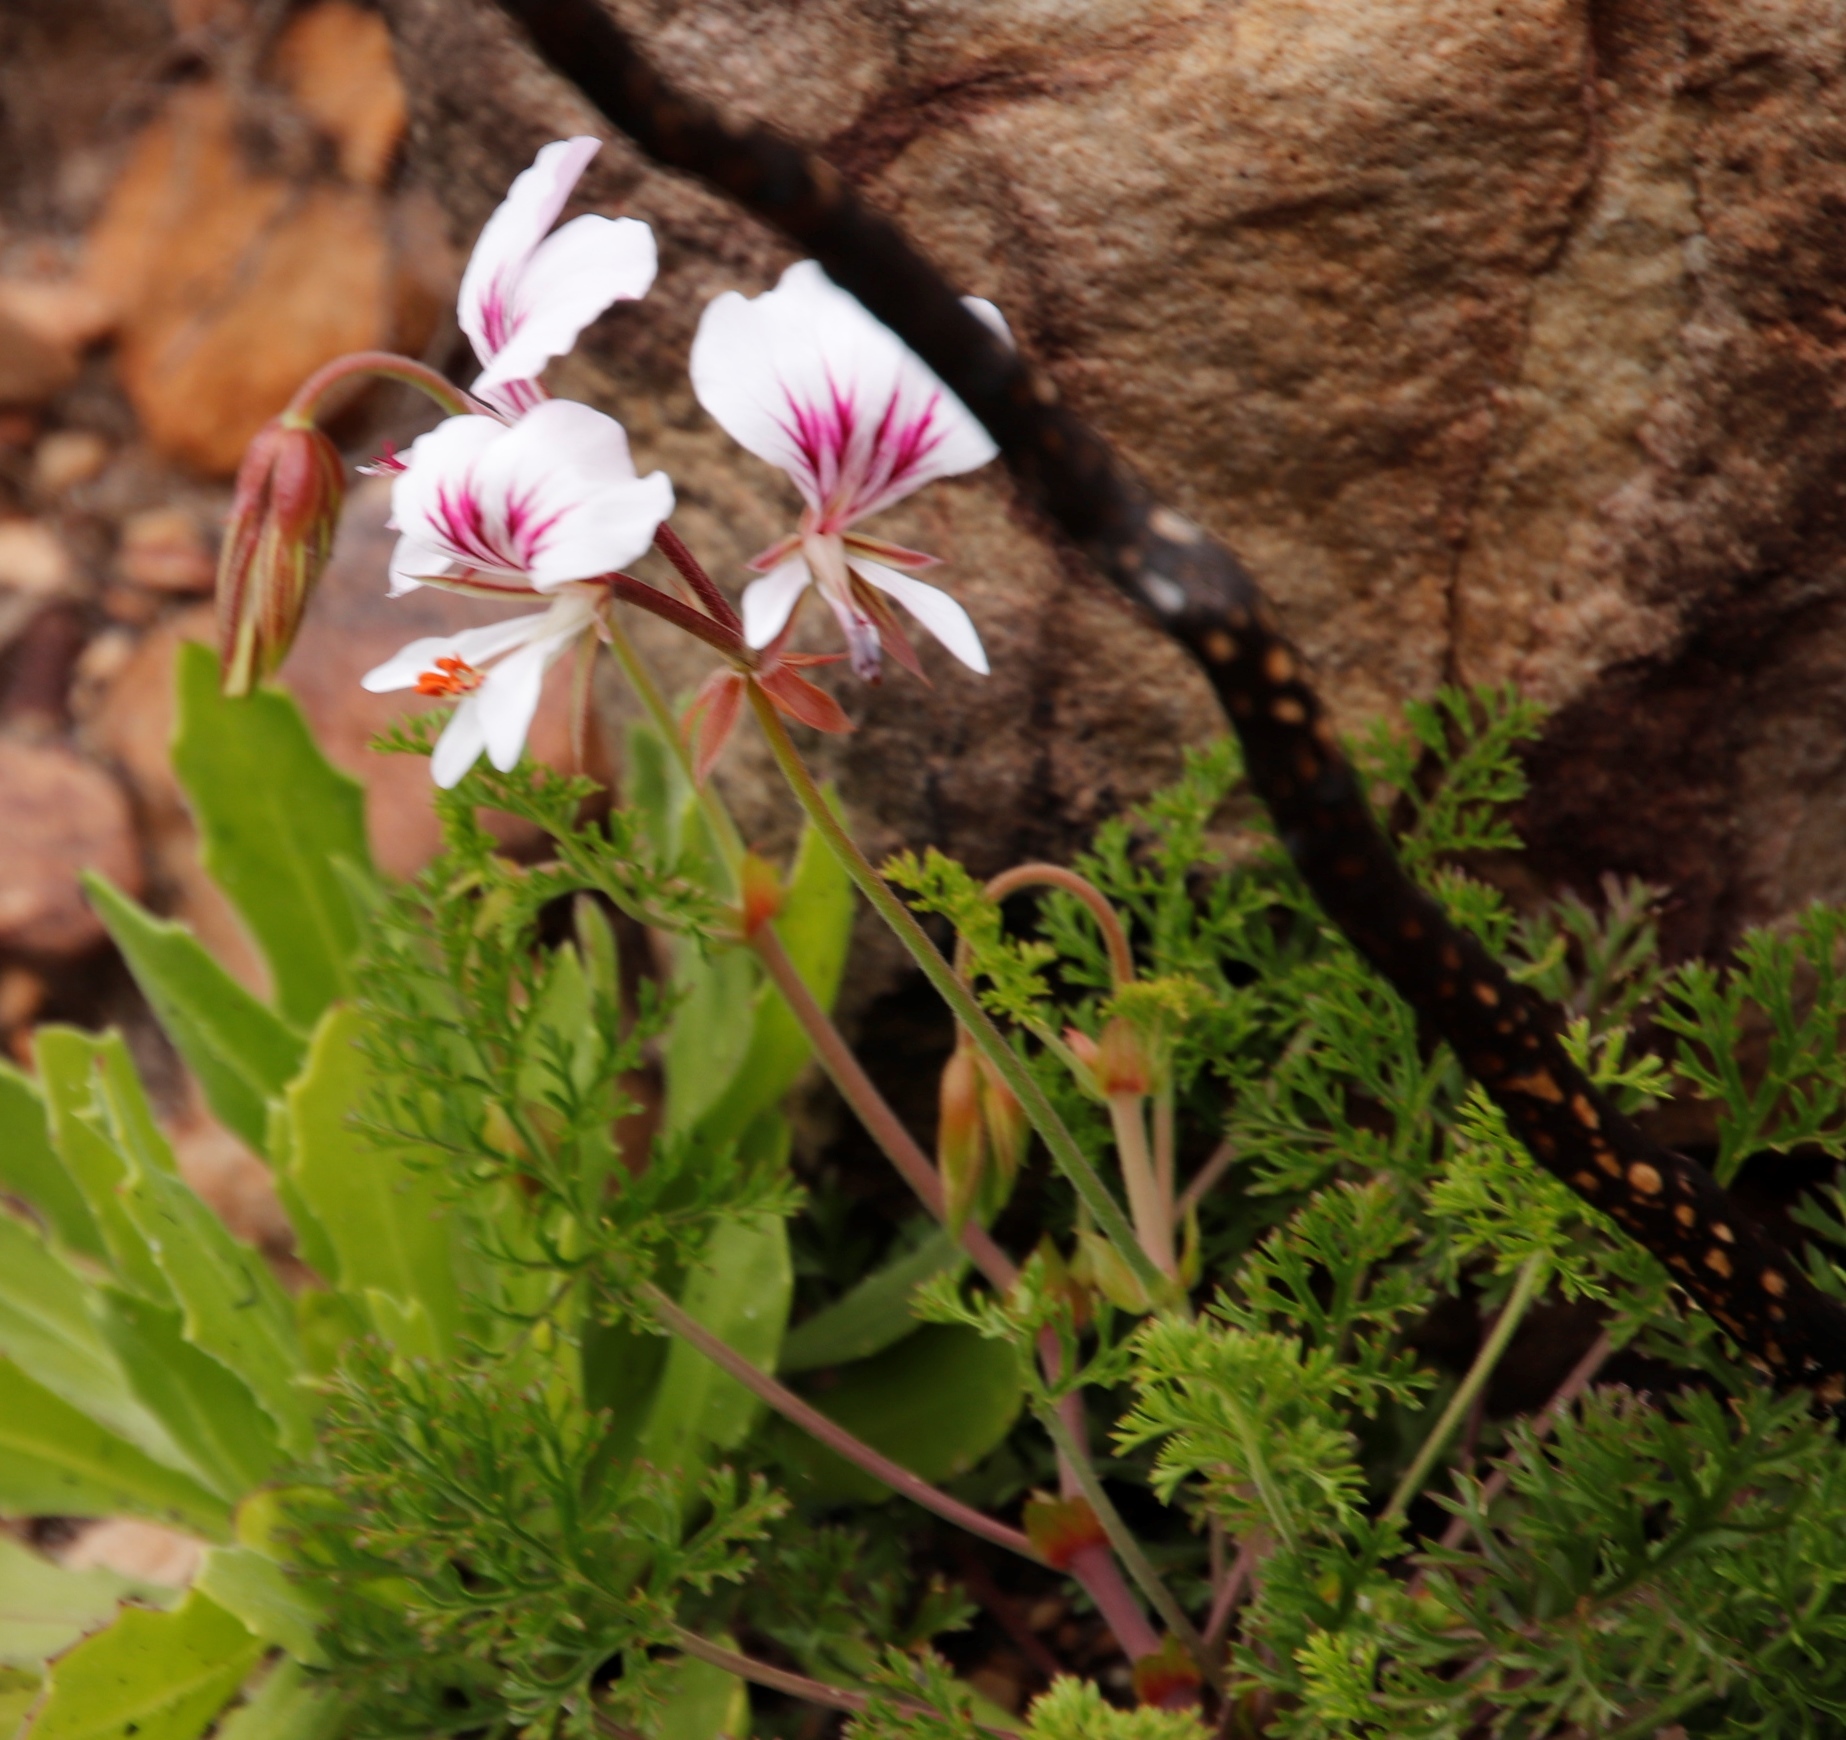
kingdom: Plantae
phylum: Tracheophyta
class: Magnoliopsida
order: Geraniales
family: Geraniaceae
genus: Pelargonium
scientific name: Pelargonium longicaule
